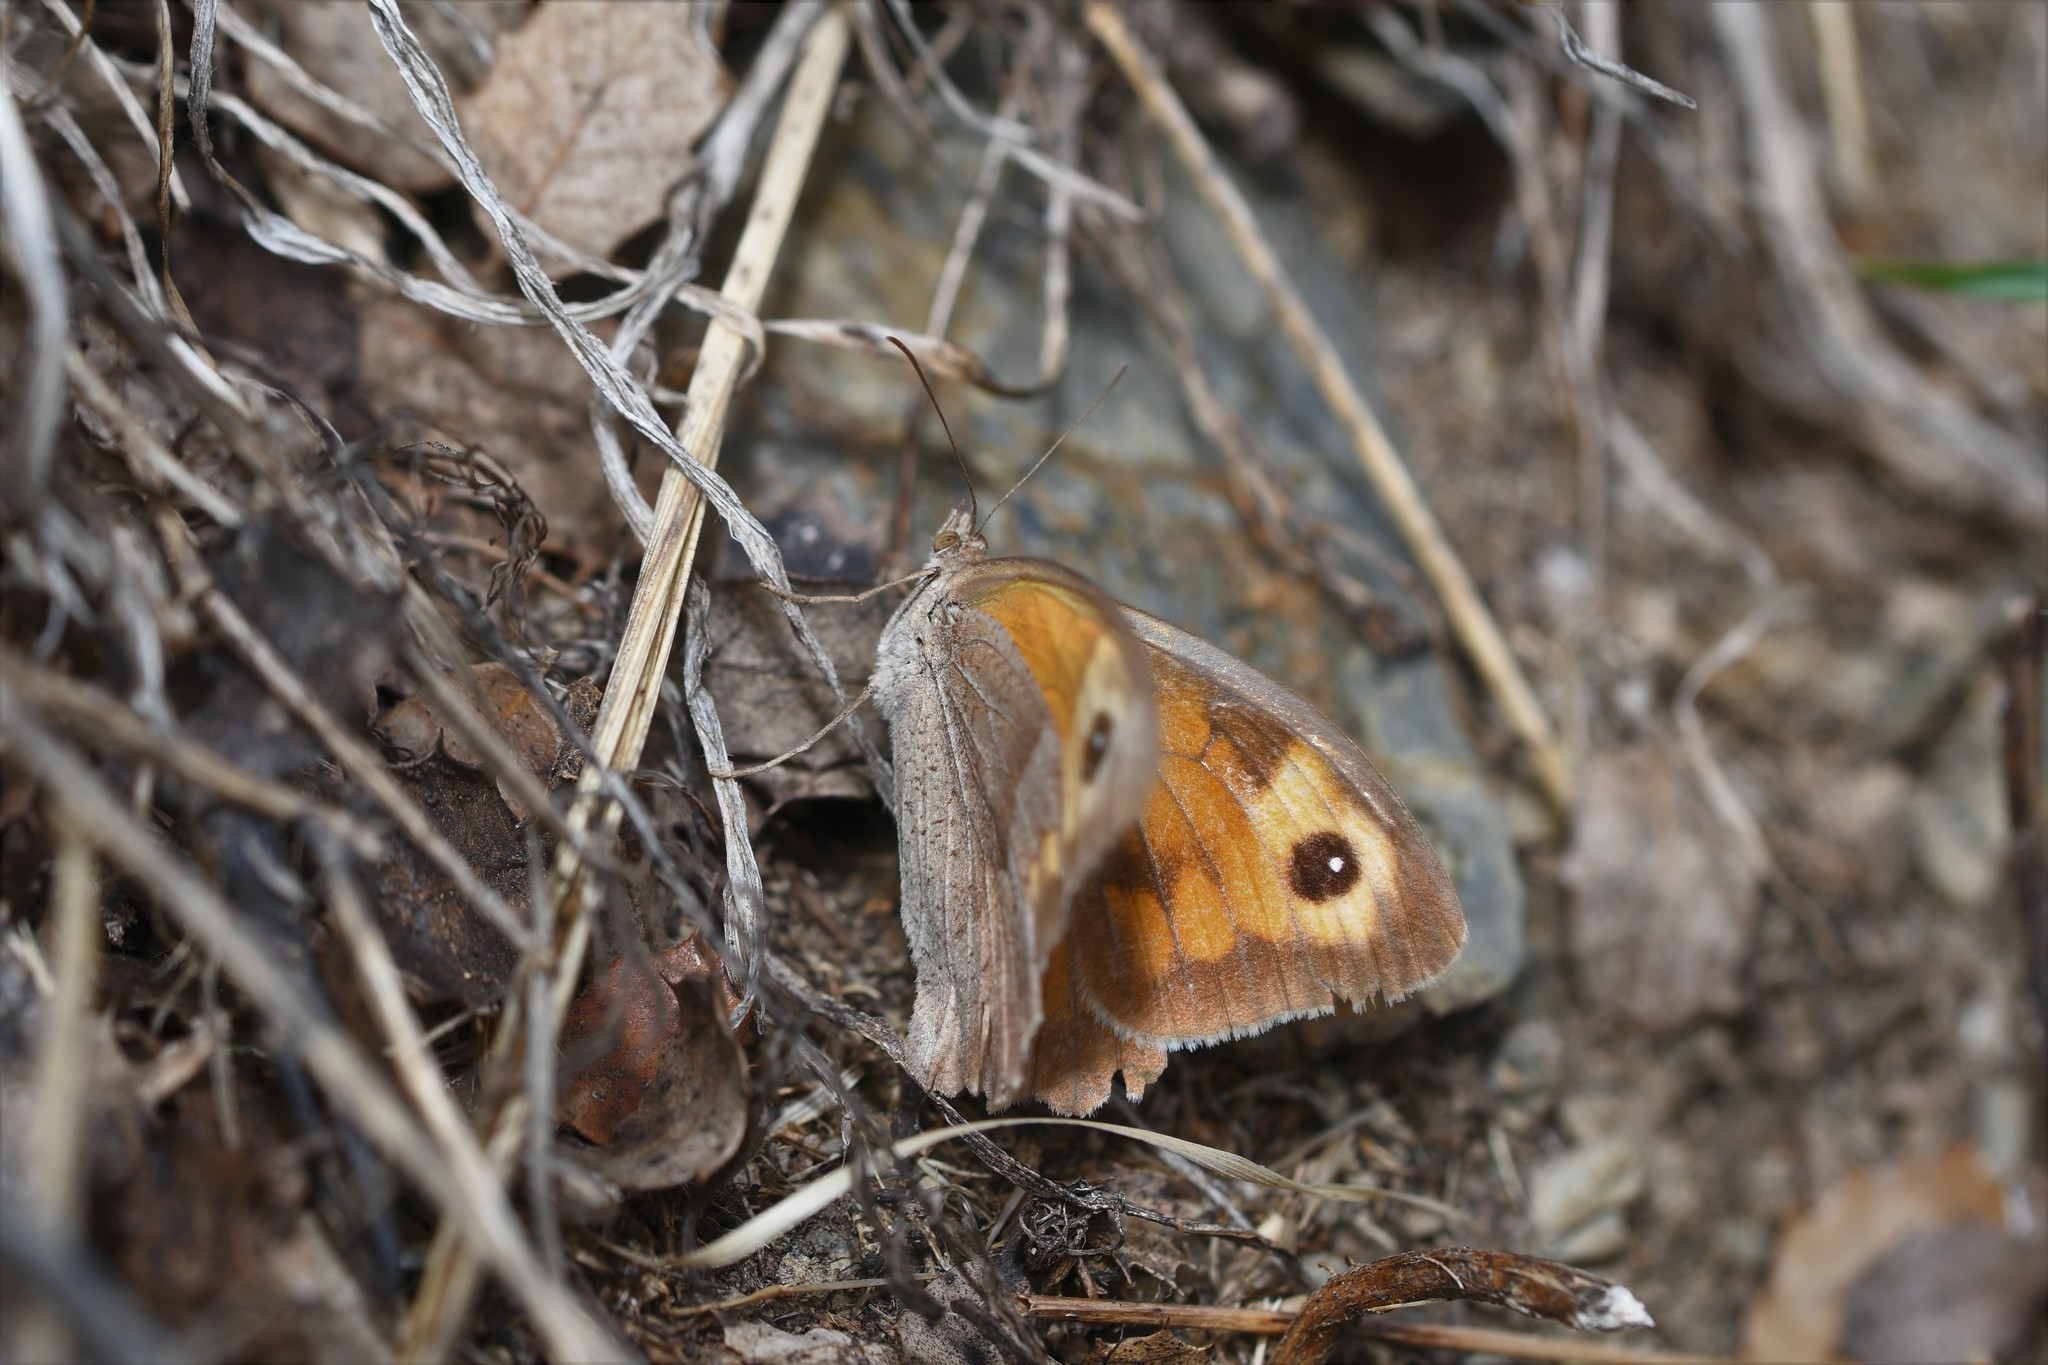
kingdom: Animalia
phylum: Arthropoda
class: Insecta
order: Lepidoptera
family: Nymphalidae
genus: Maniola
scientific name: Maniola jurtina
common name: Meadow brown
